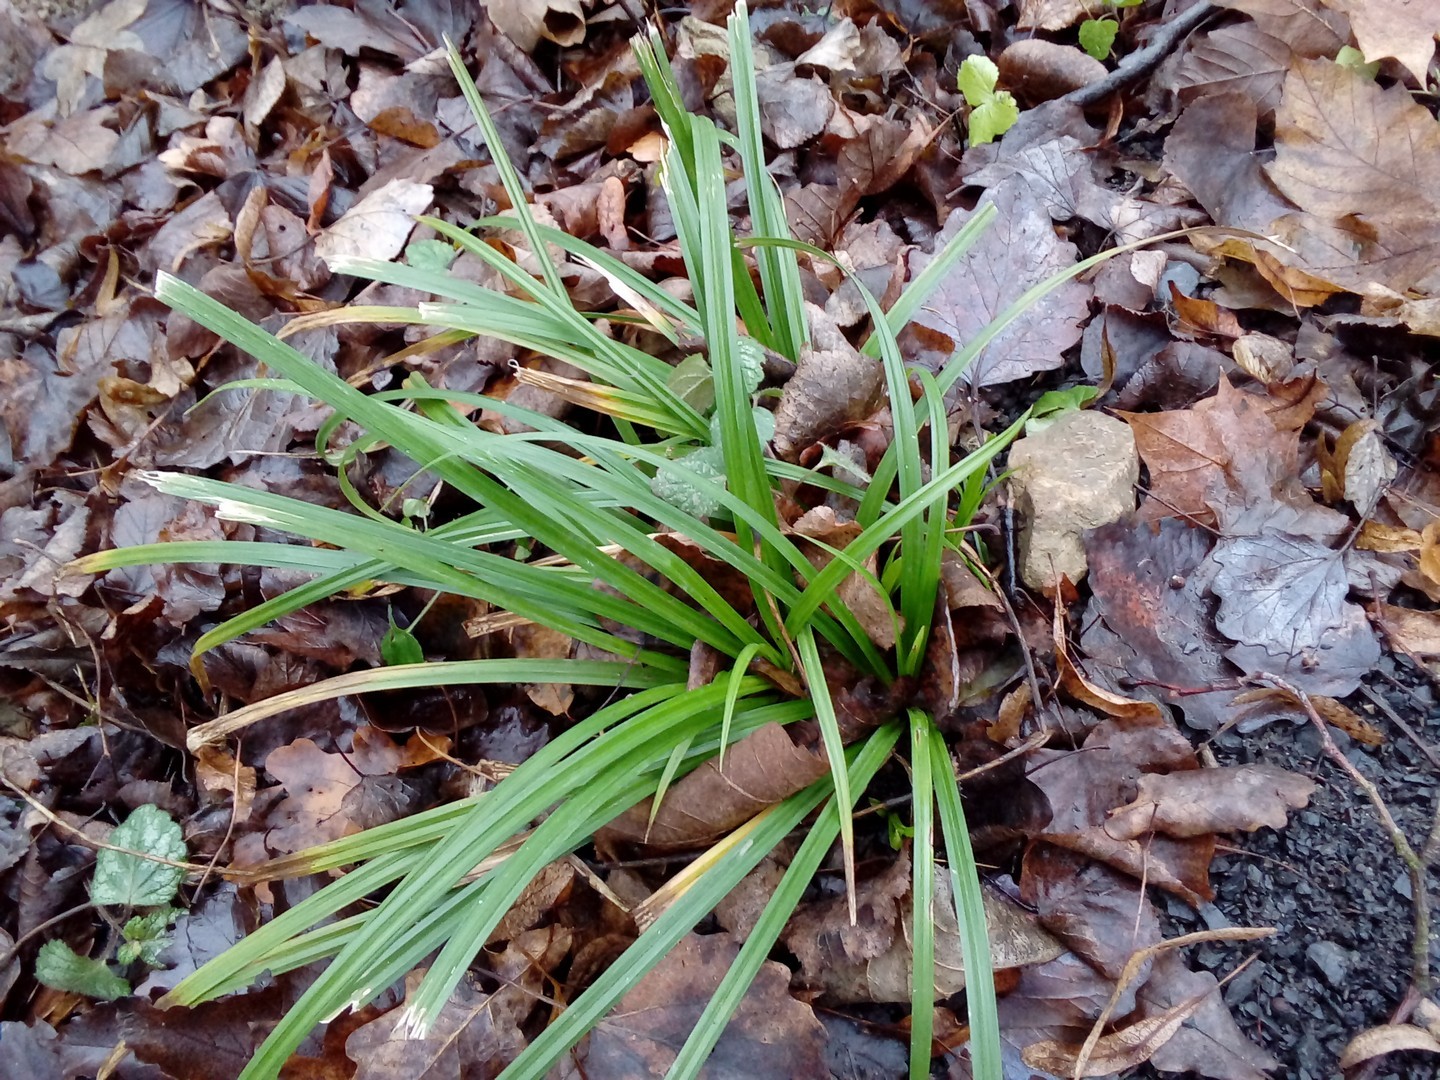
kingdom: Plantae
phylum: Tracheophyta
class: Liliopsida
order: Poales
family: Cyperaceae
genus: Carex
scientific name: Carex sylvatica
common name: Wood-sedge
